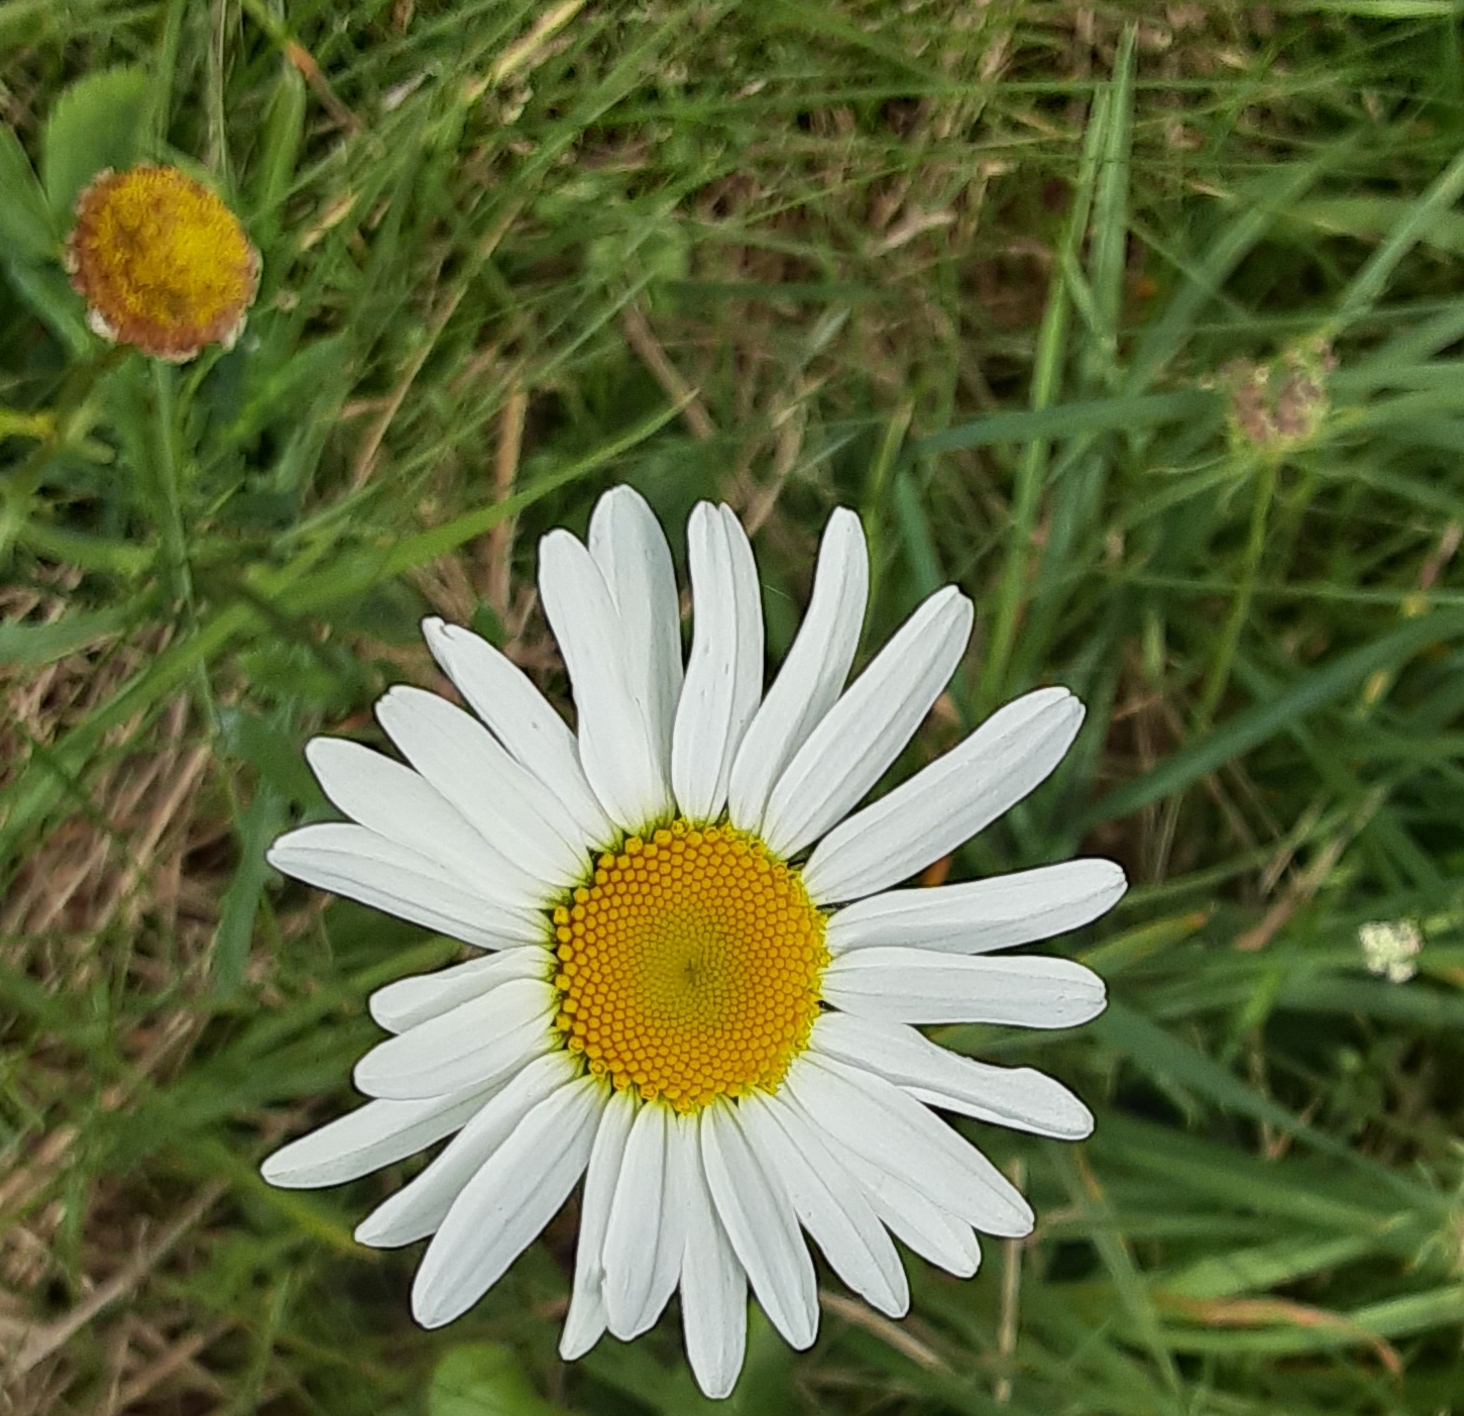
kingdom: Plantae
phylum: Tracheophyta
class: Magnoliopsida
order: Asterales
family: Asteraceae
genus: Leucanthemum
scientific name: Leucanthemum vulgare
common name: Oxeye daisy
